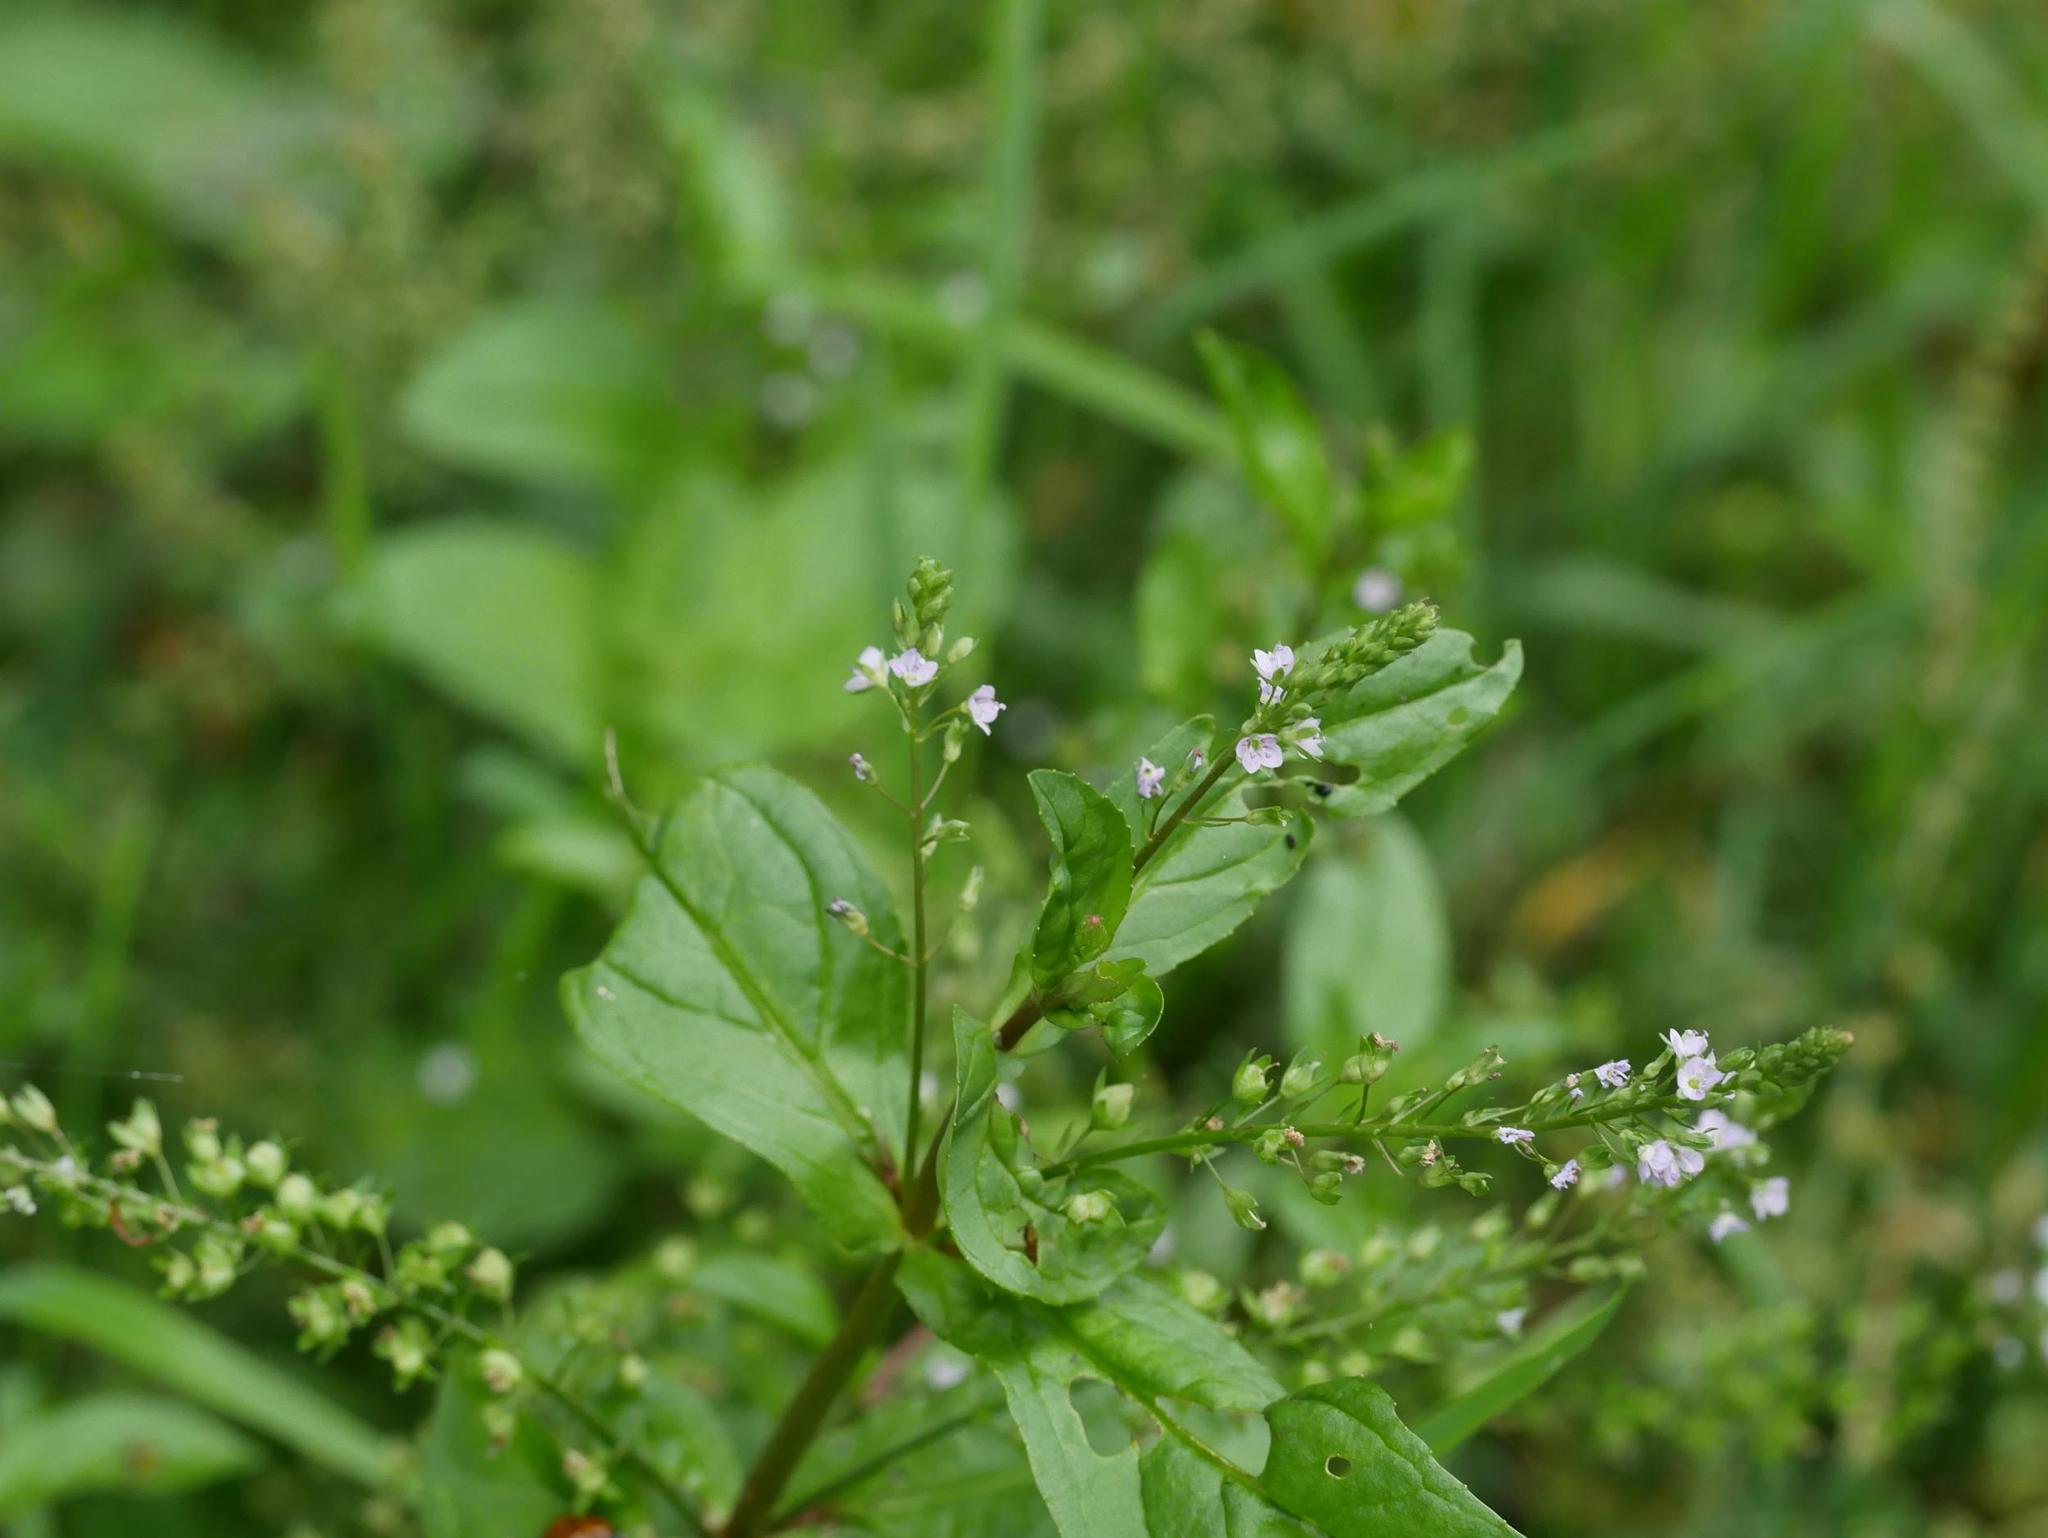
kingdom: Plantae
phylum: Tracheophyta
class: Magnoliopsida
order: Lamiales
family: Plantaginaceae
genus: Veronica
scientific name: Veronica anagallis-aquatica
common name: Water speedwell
